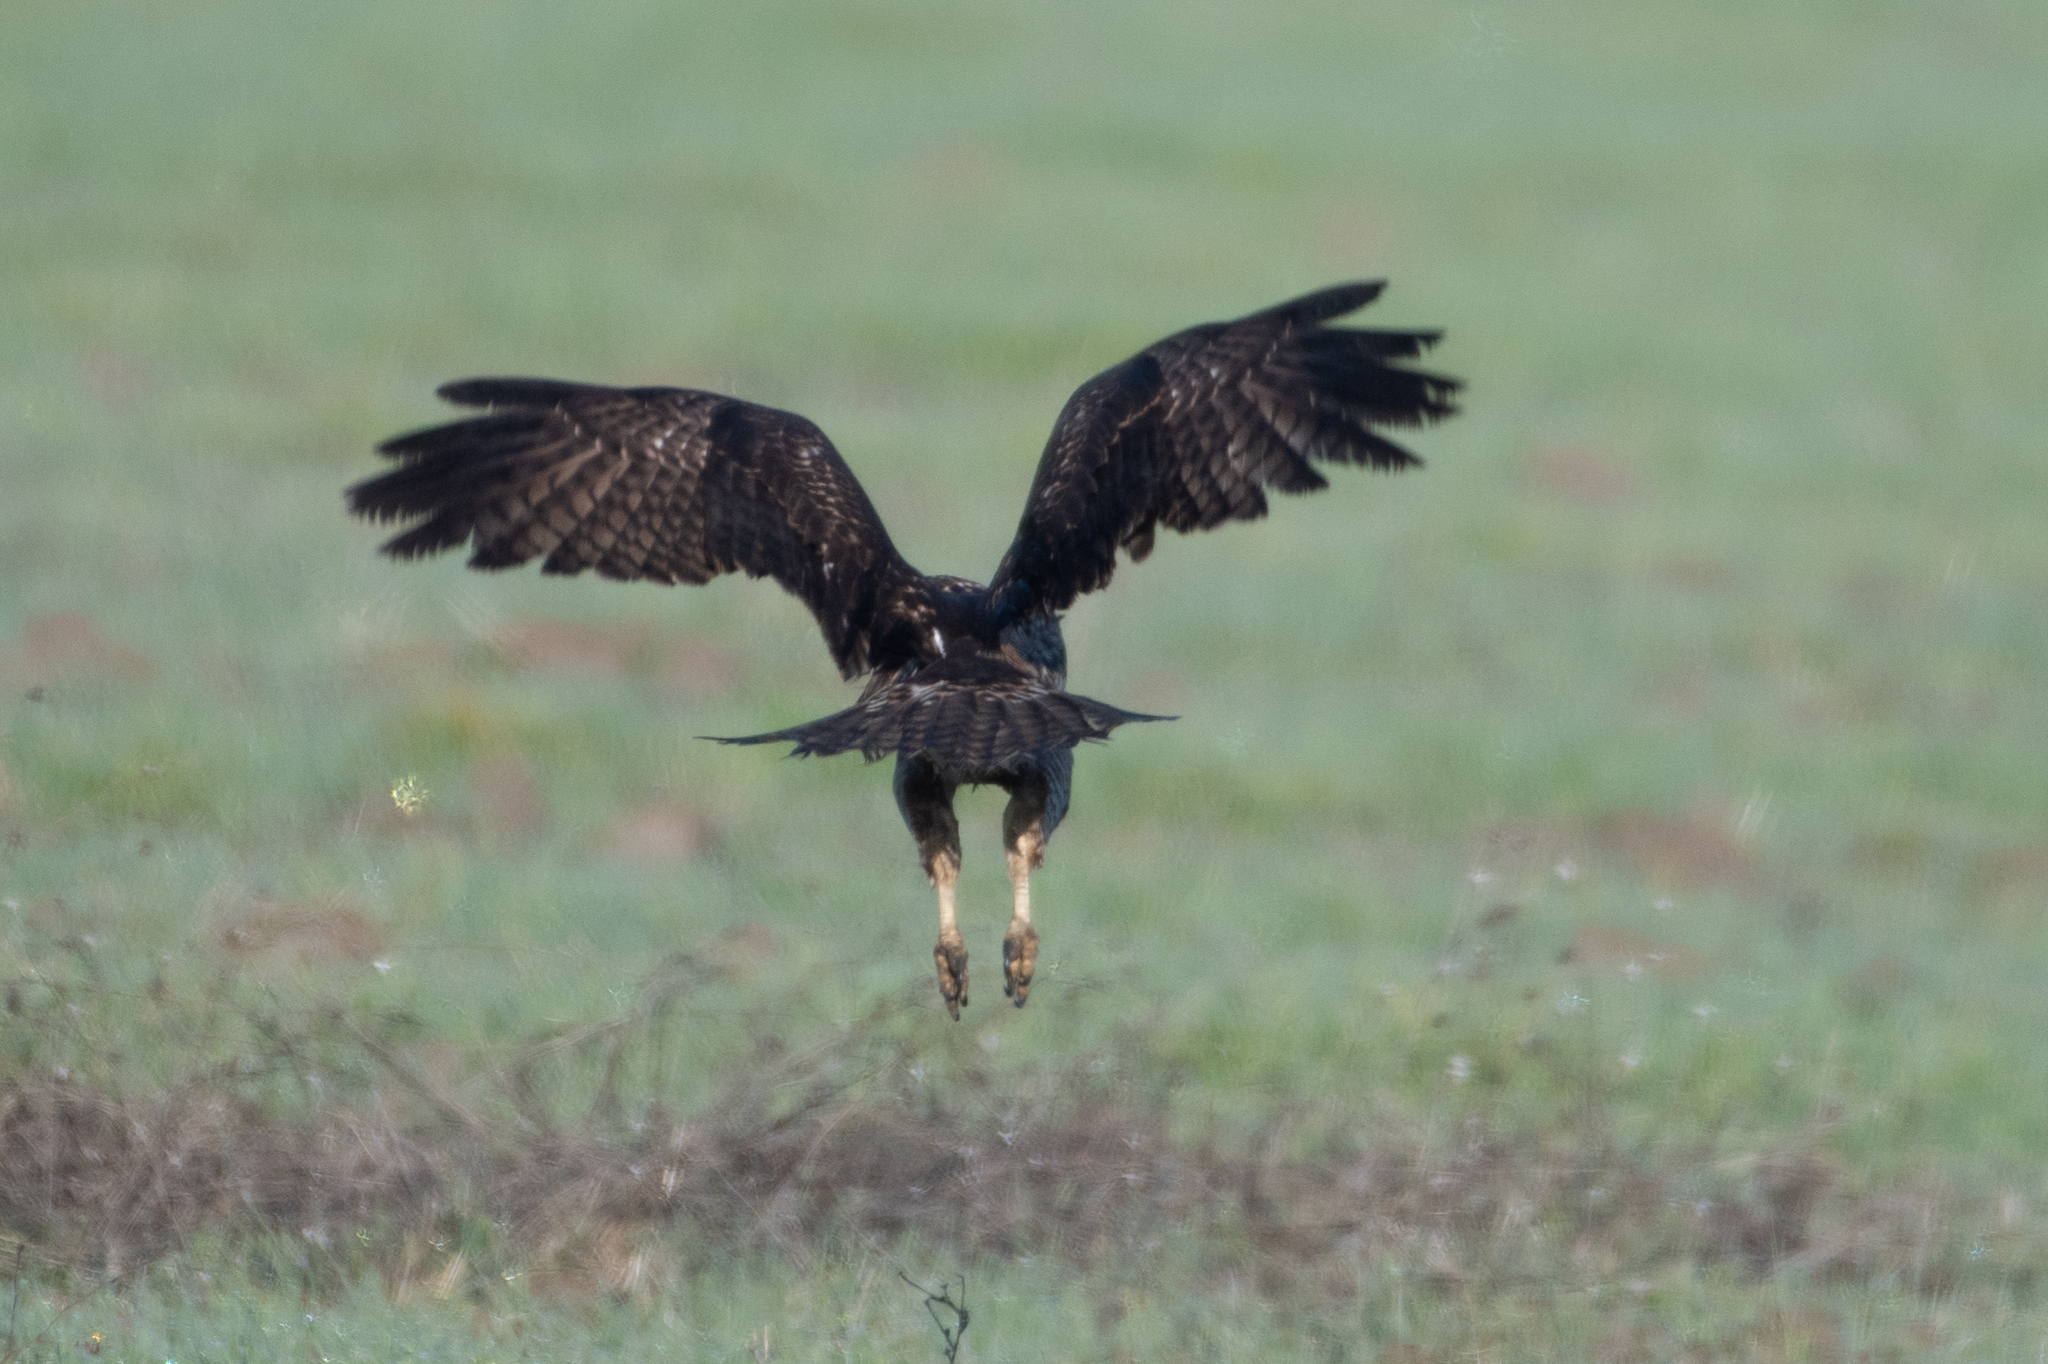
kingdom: Animalia
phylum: Chordata
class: Aves
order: Accipitriformes
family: Accipitridae
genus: Buteo
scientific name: Buteo jamaicensis
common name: Red-tailed hawk
